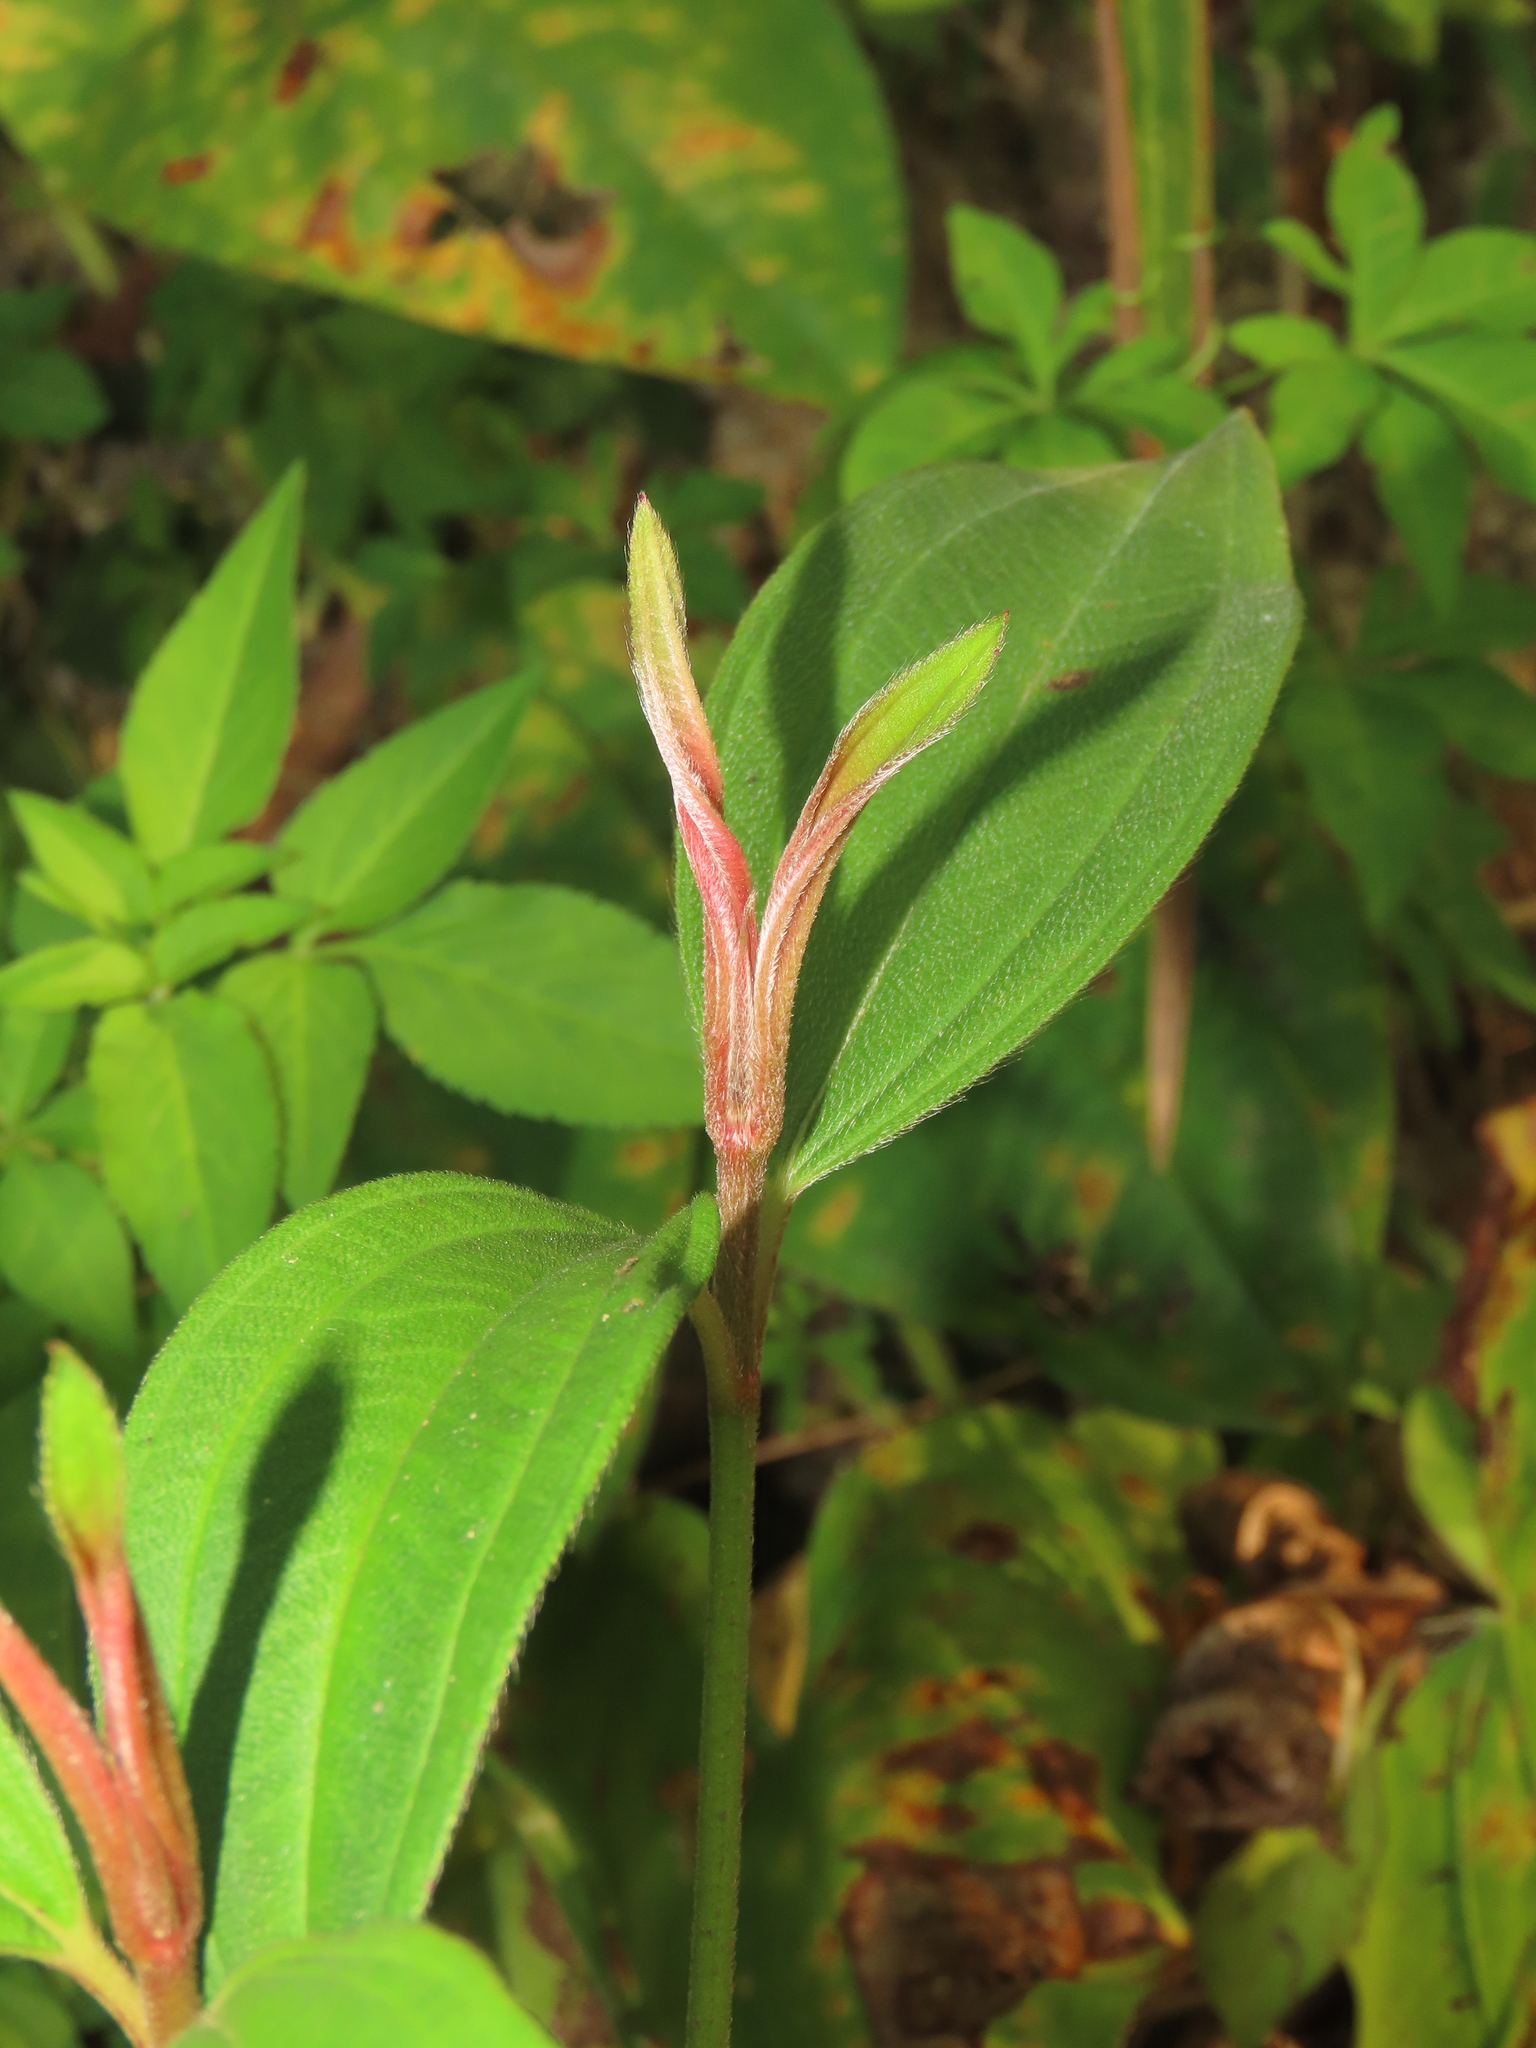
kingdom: Plantae
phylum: Tracheophyta
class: Magnoliopsida
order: Myrtales
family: Melastomataceae
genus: Melastoma
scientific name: Melastoma malabathricum
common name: Indian-rhododendron
